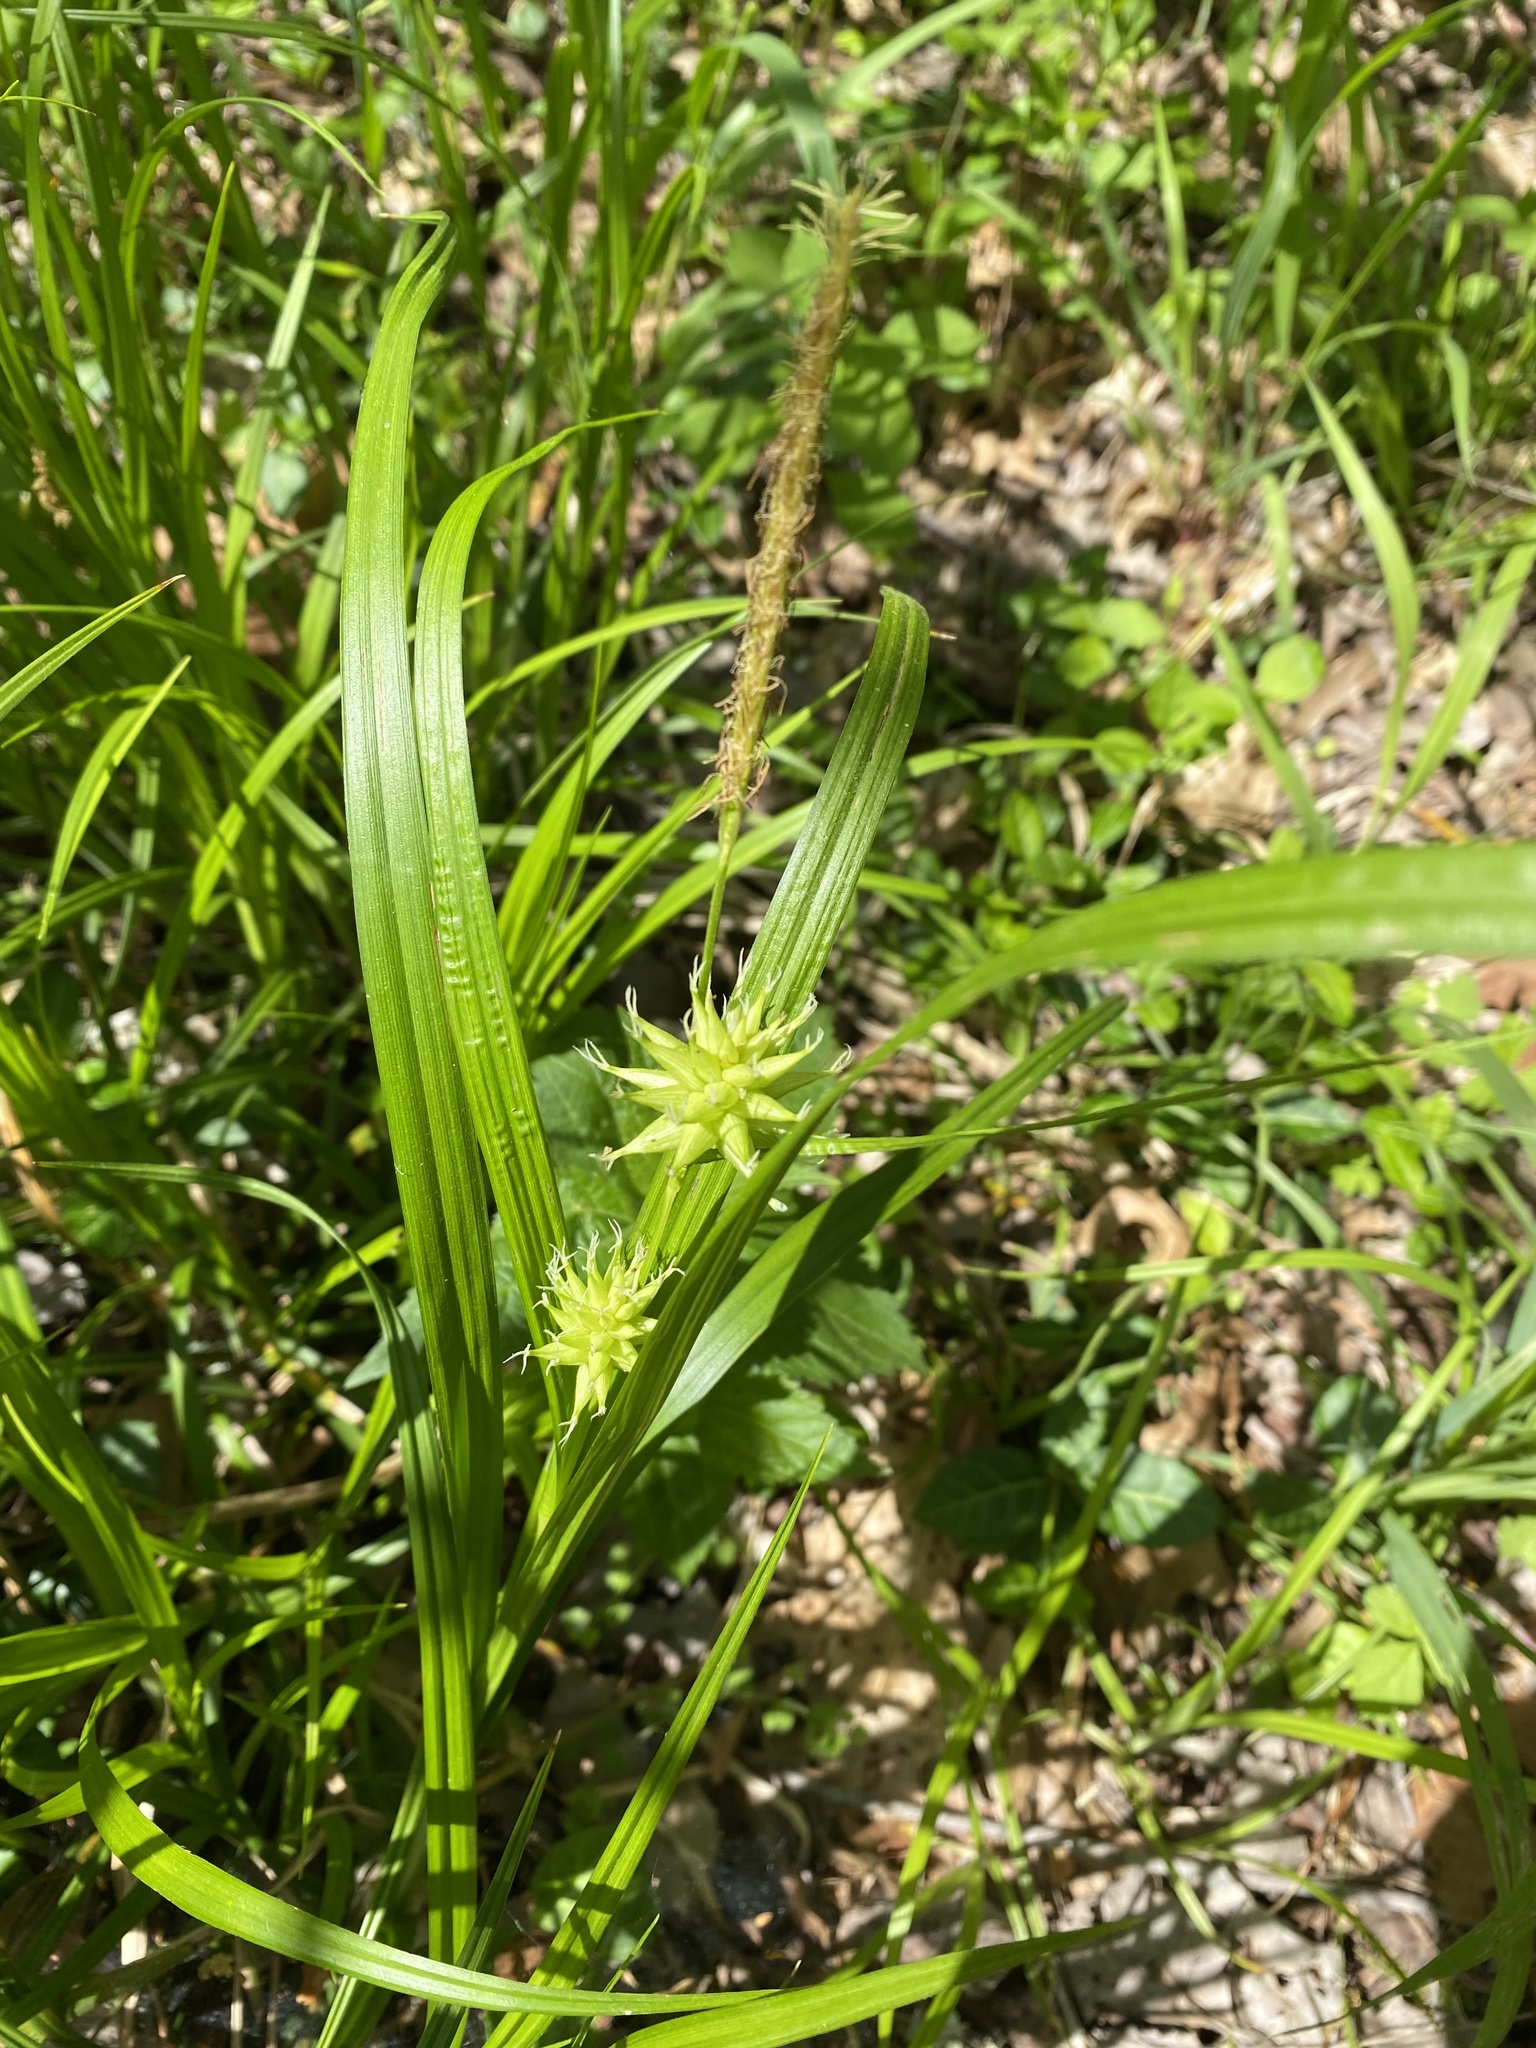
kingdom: Plantae
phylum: Tracheophyta
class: Liliopsida
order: Poales
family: Cyperaceae
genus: Carex
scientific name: Carex grayi
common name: Asa gray's sedge
